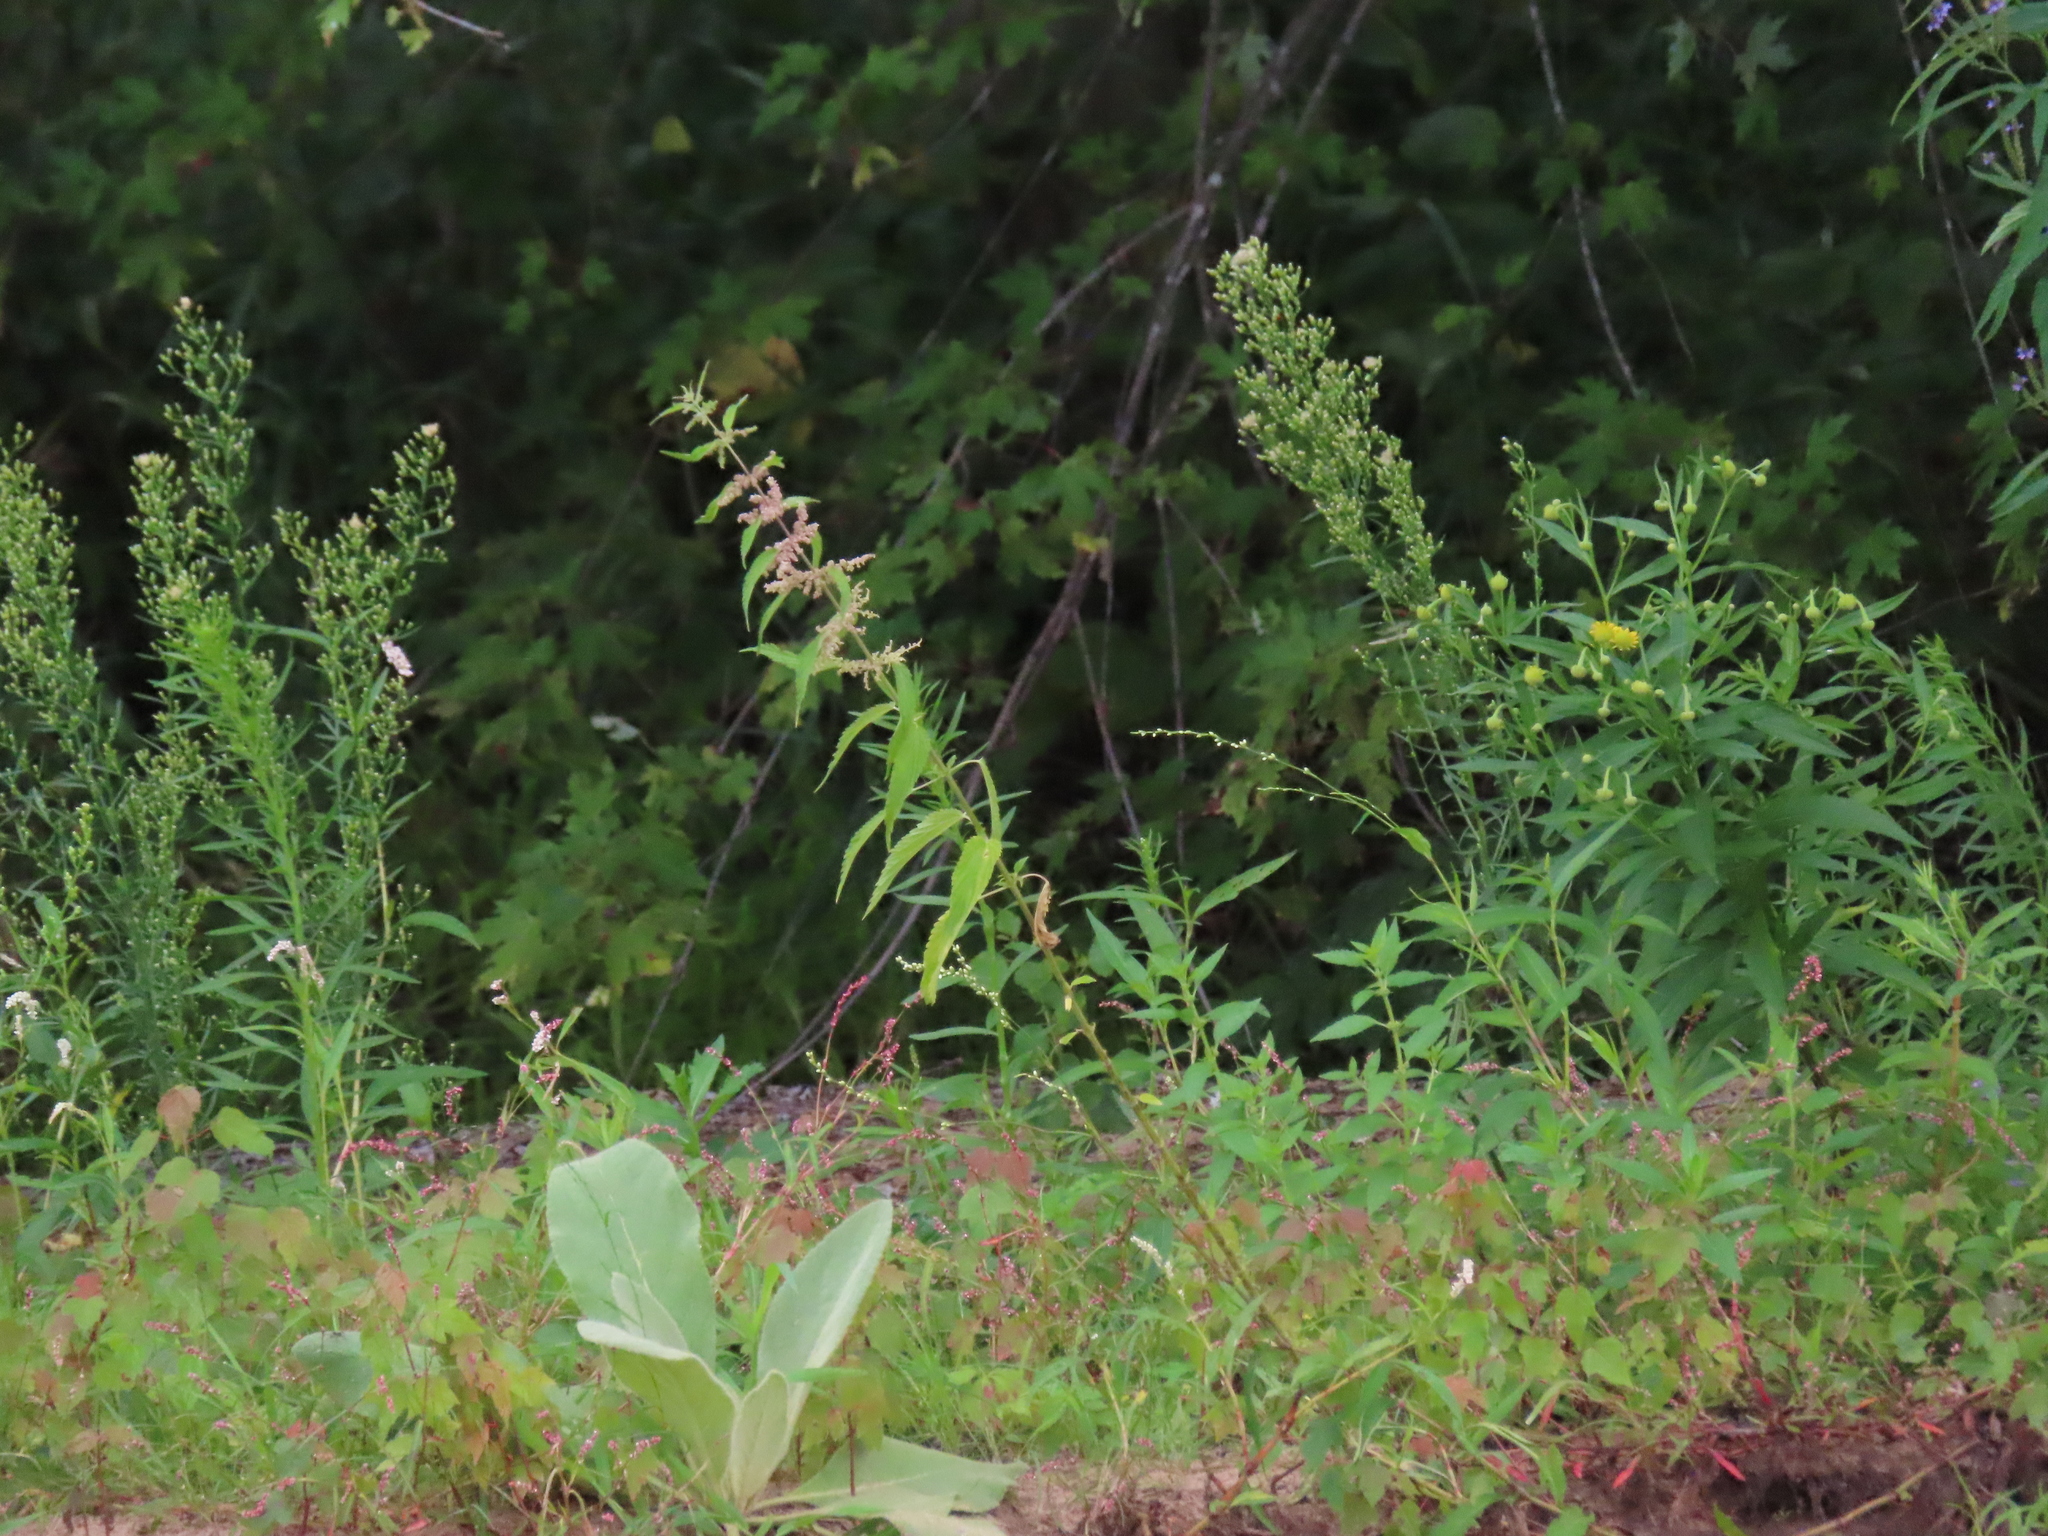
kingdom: Plantae
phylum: Tracheophyta
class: Magnoliopsida
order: Lamiales
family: Scrophulariaceae
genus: Verbascum
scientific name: Verbascum thapsus
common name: Common mullein
